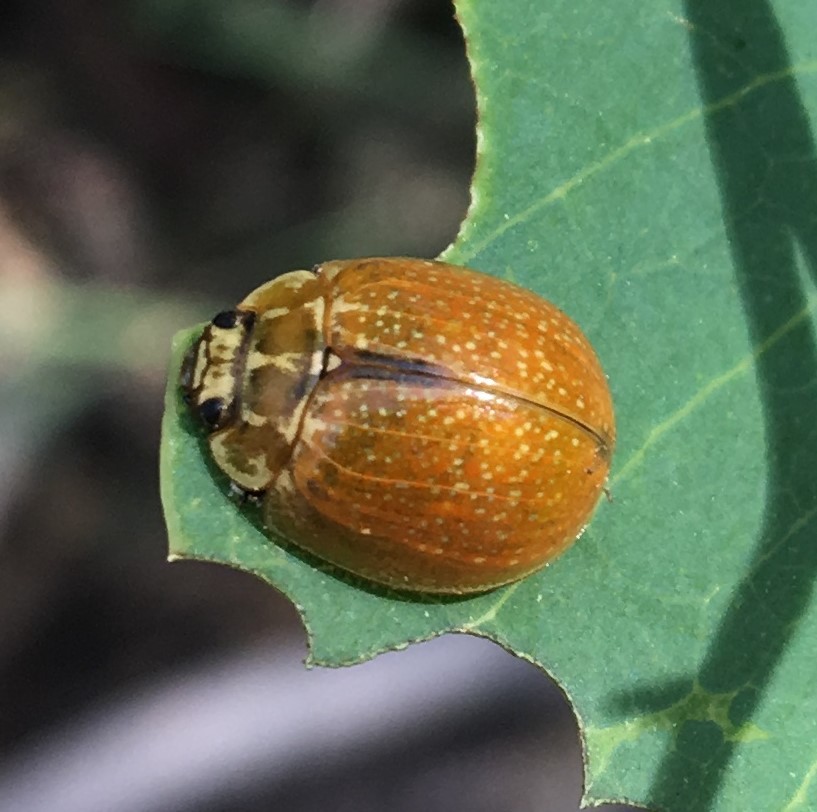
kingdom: Animalia
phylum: Arthropoda
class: Insecta
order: Coleoptera
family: Chrysomelidae
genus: Paropsisterna
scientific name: Paropsisterna cloelia
